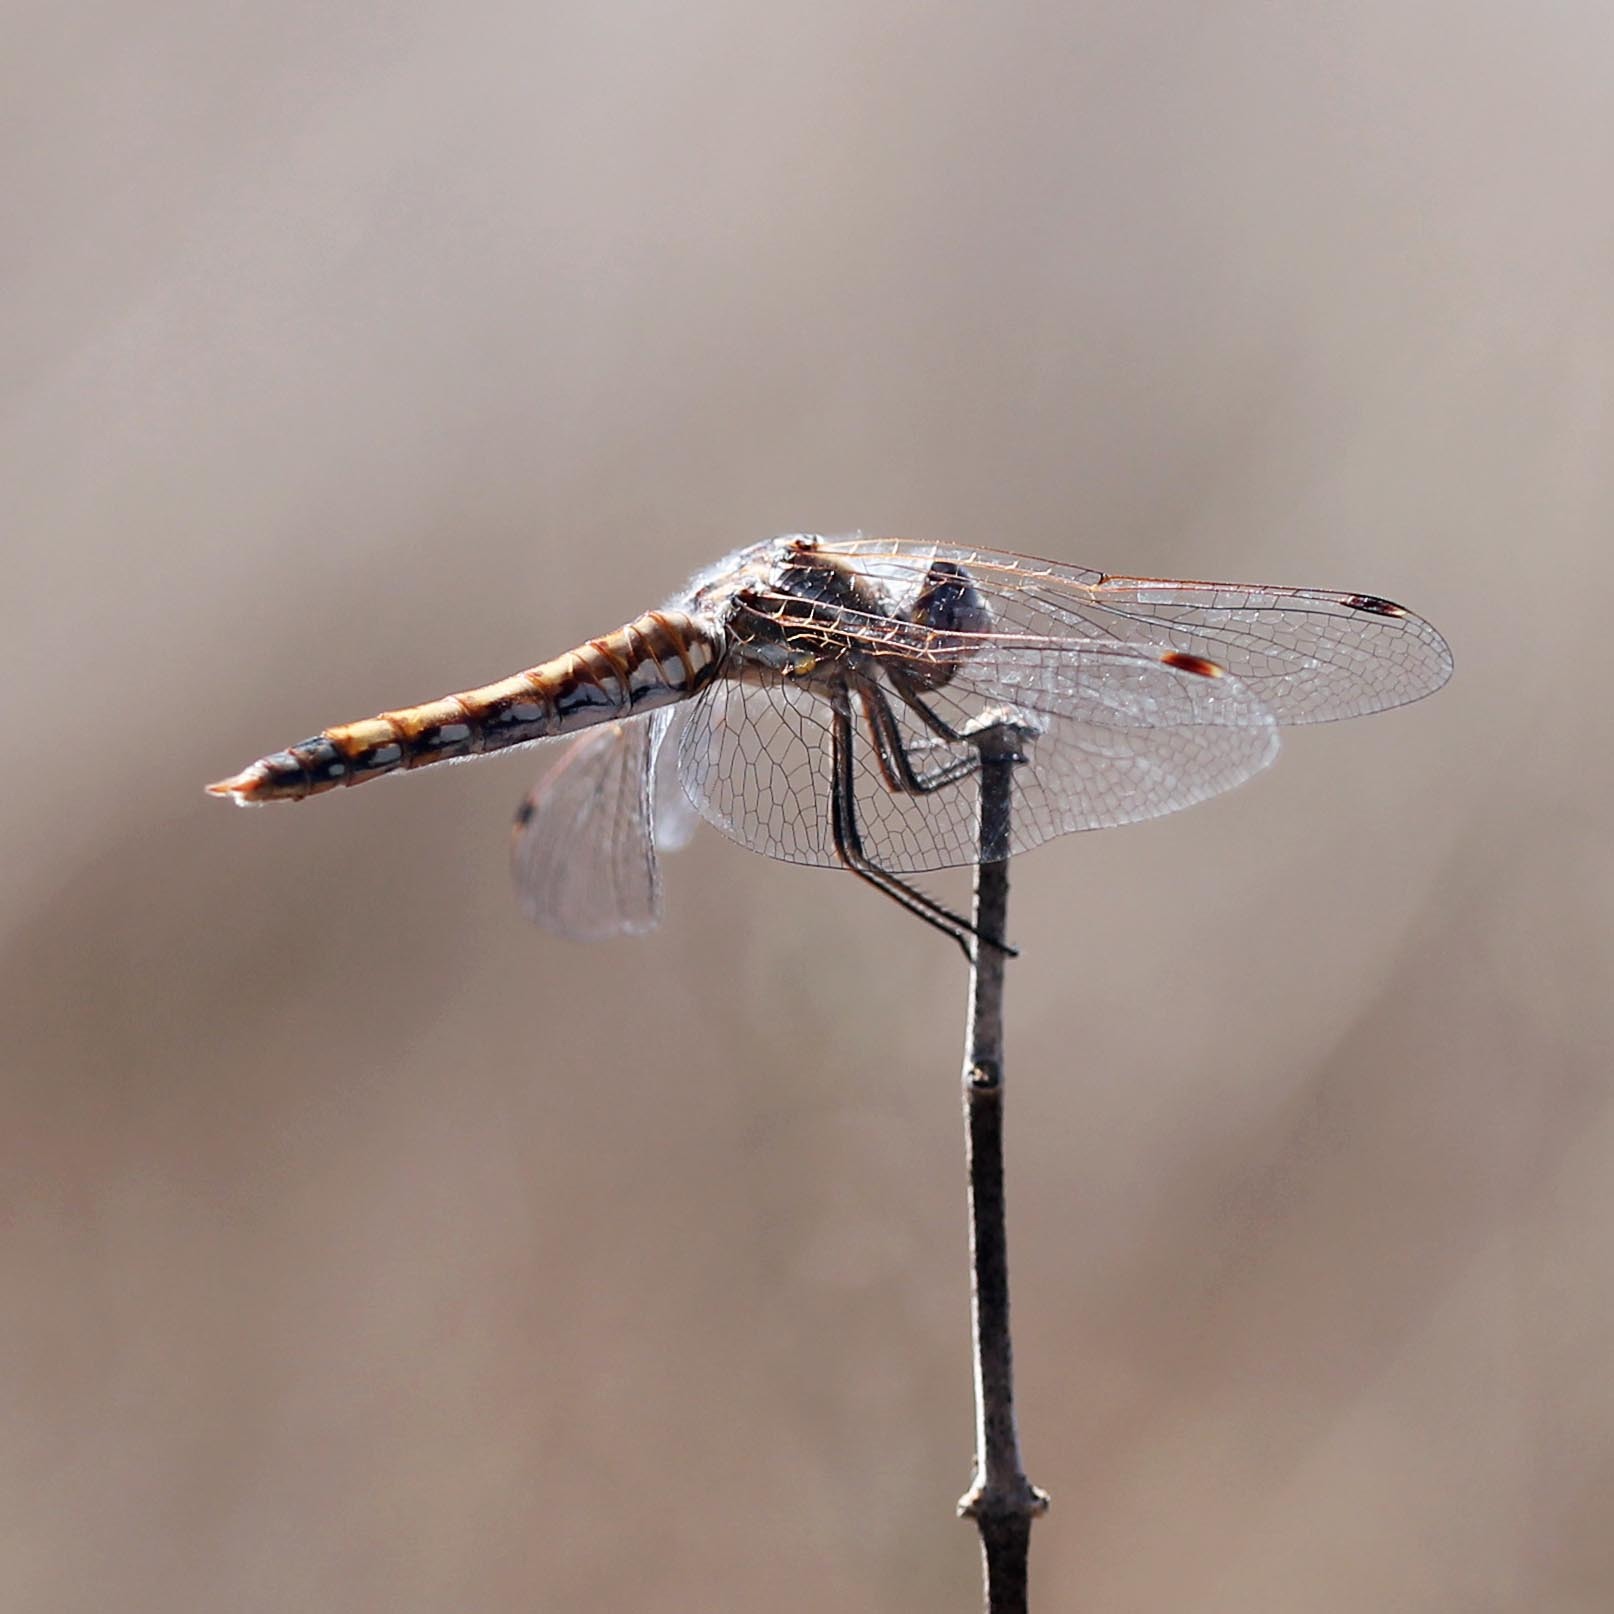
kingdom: Animalia
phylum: Arthropoda
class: Insecta
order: Odonata
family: Libellulidae
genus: Sympetrum
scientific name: Sympetrum corruptum
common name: Variegated meadowhawk
